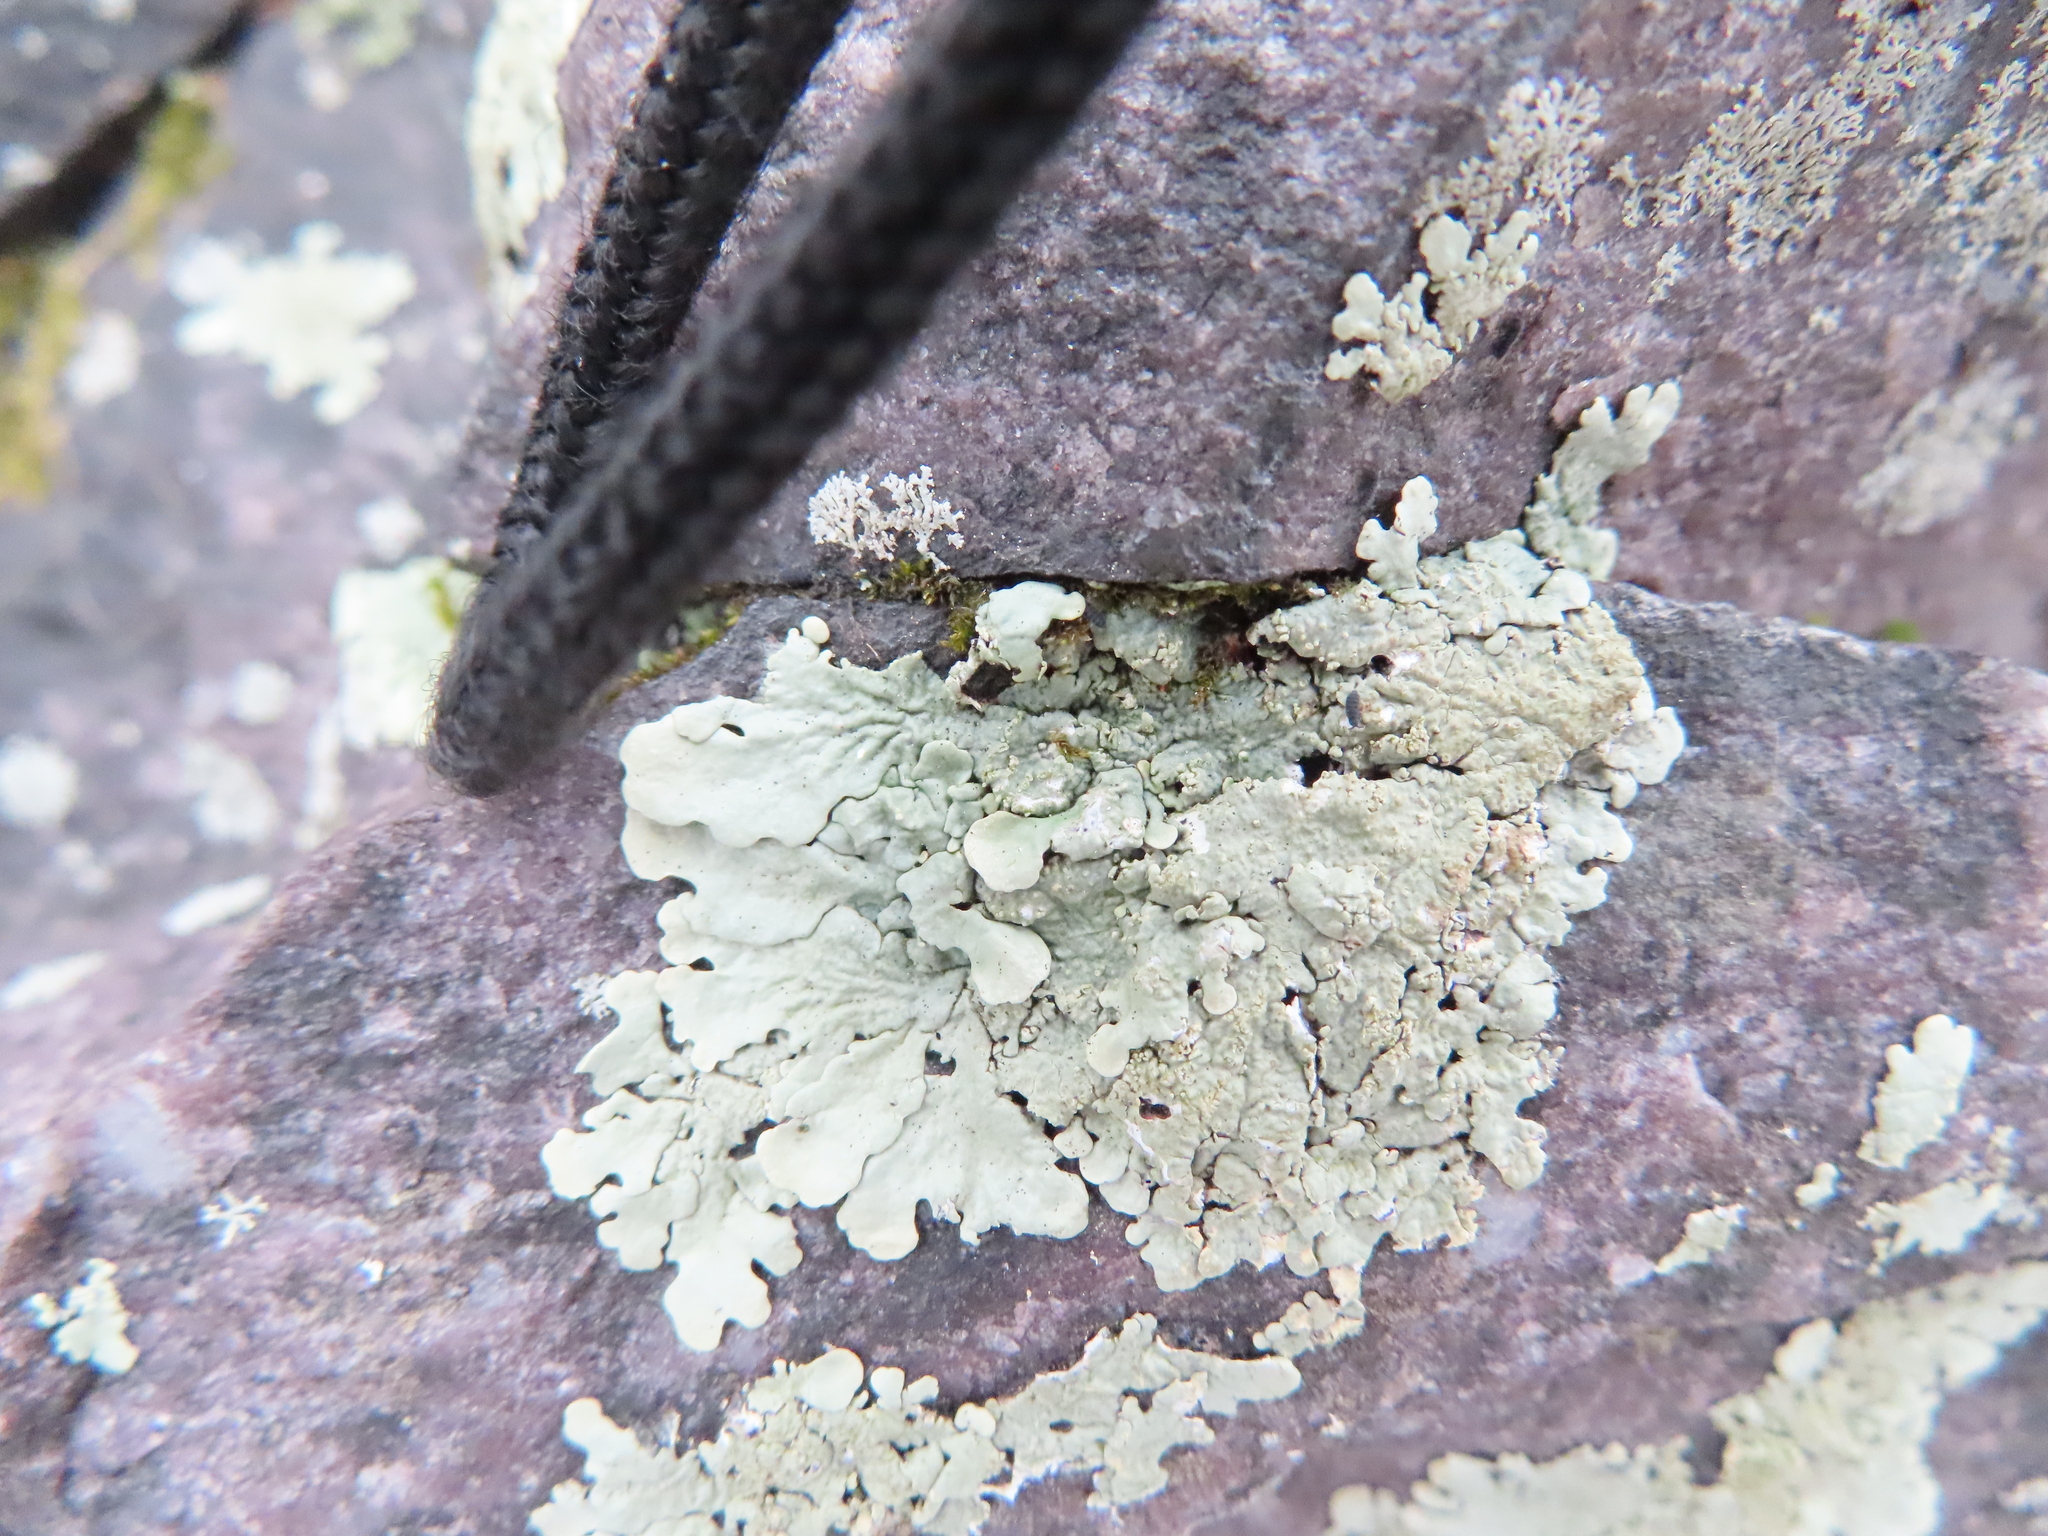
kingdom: Fungi
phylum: Ascomycota
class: Lecanoromycetes
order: Lecanorales
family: Parmeliaceae
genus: Flavoparmelia
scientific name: Flavoparmelia baltimorensis
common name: Rock greenshield
